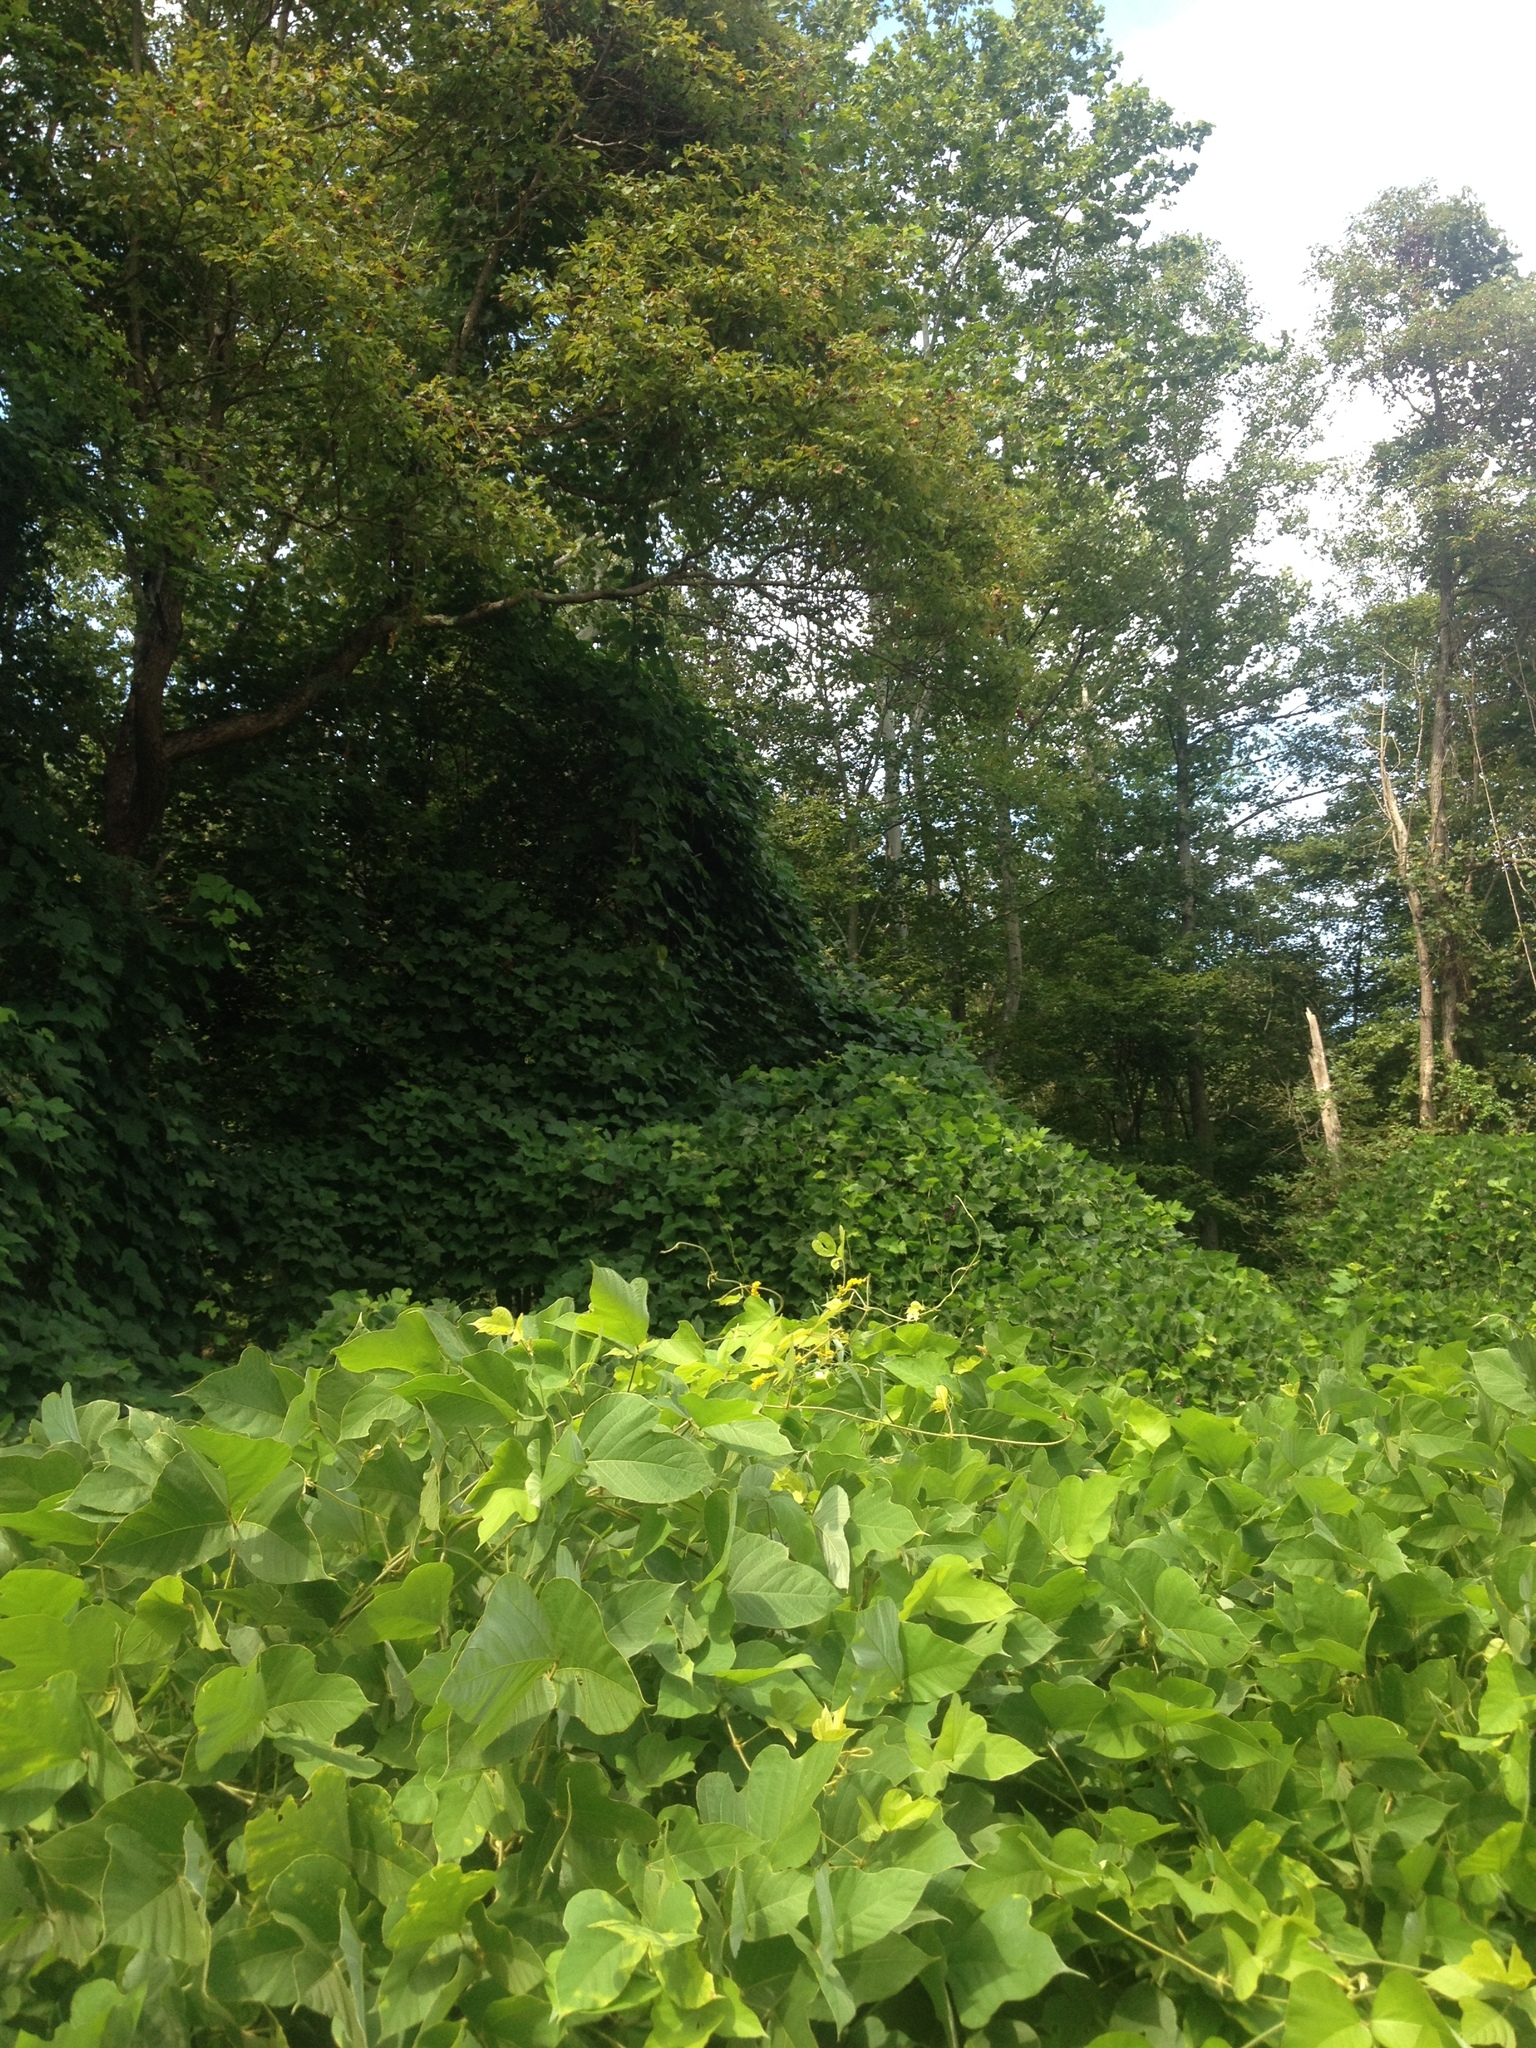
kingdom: Plantae
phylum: Tracheophyta
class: Magnoliopsida
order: Fabales
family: Fabaceae
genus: Pueraria
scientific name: Pueraria montana
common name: Kudzu
